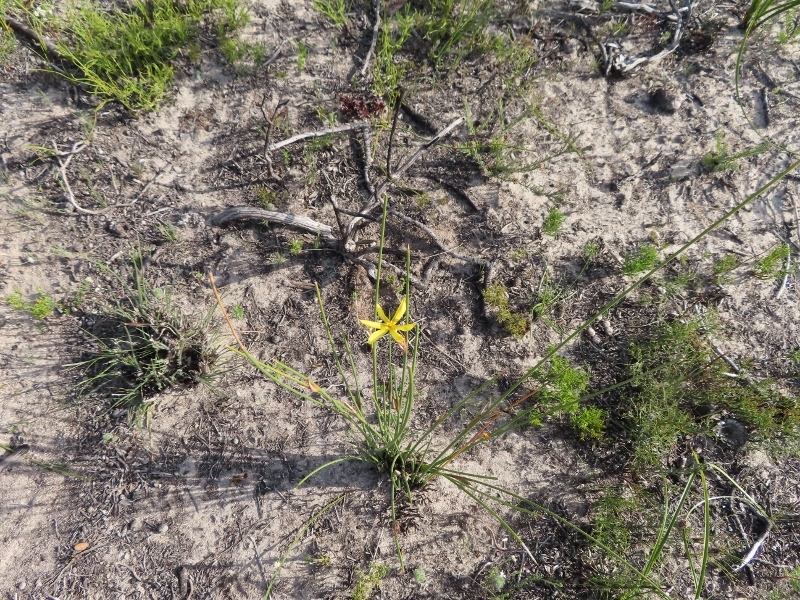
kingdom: Plantae
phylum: Tracheophyta
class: Liliopsida
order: Asparagales
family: Iridaceae
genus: Bobartia
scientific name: Bobartia indica
